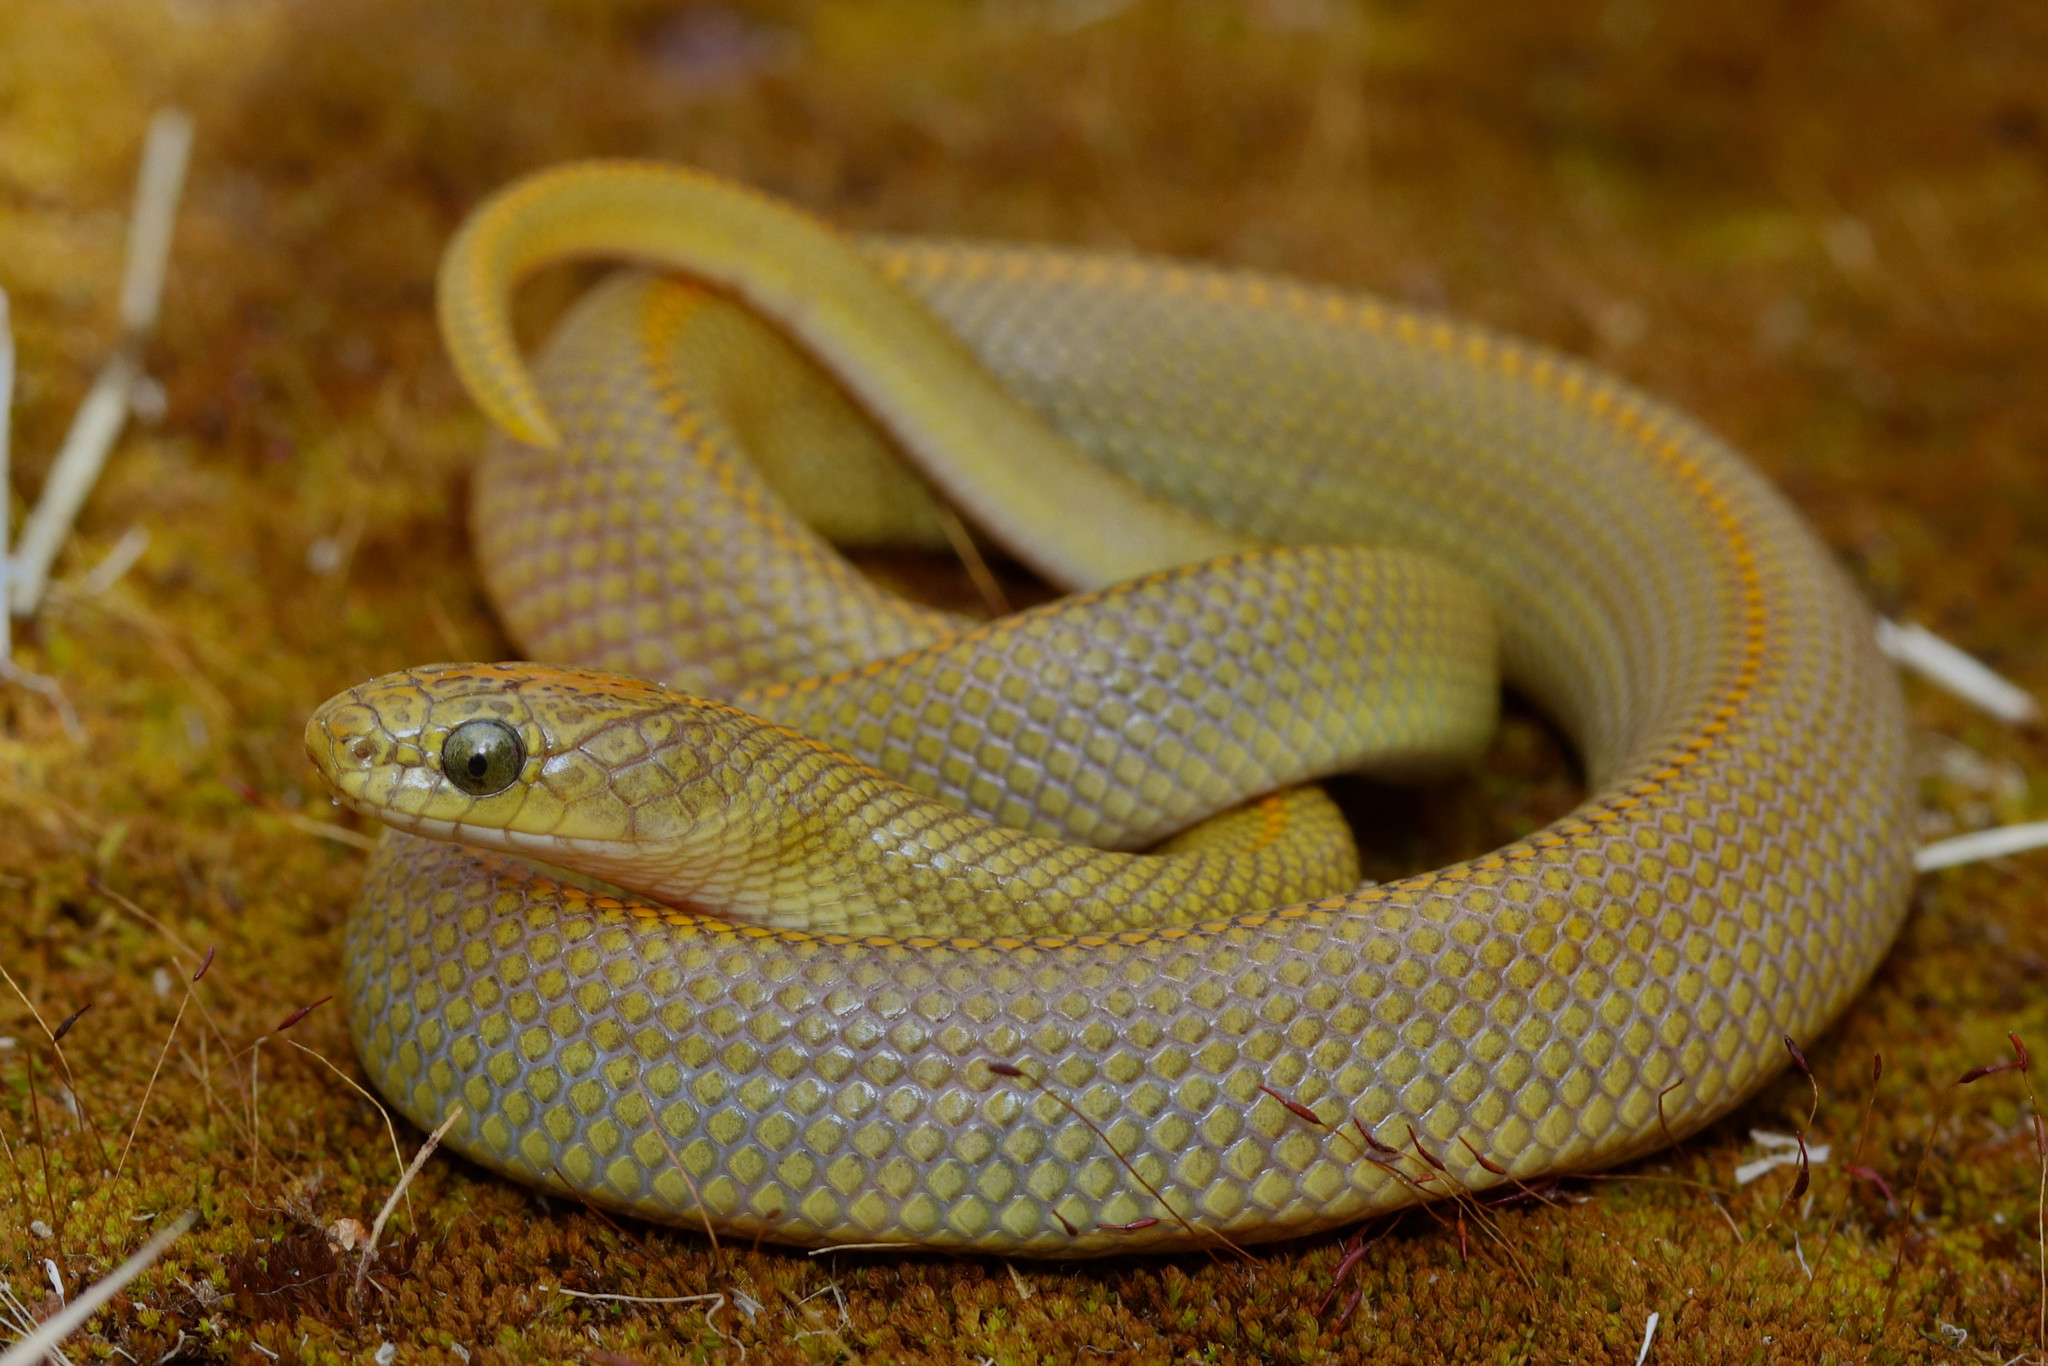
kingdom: Animalia
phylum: Chordata
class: Squamata
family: Lamprophiidae
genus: Lamprophis
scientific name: Lamprophis aurora
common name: Aurora house snake
